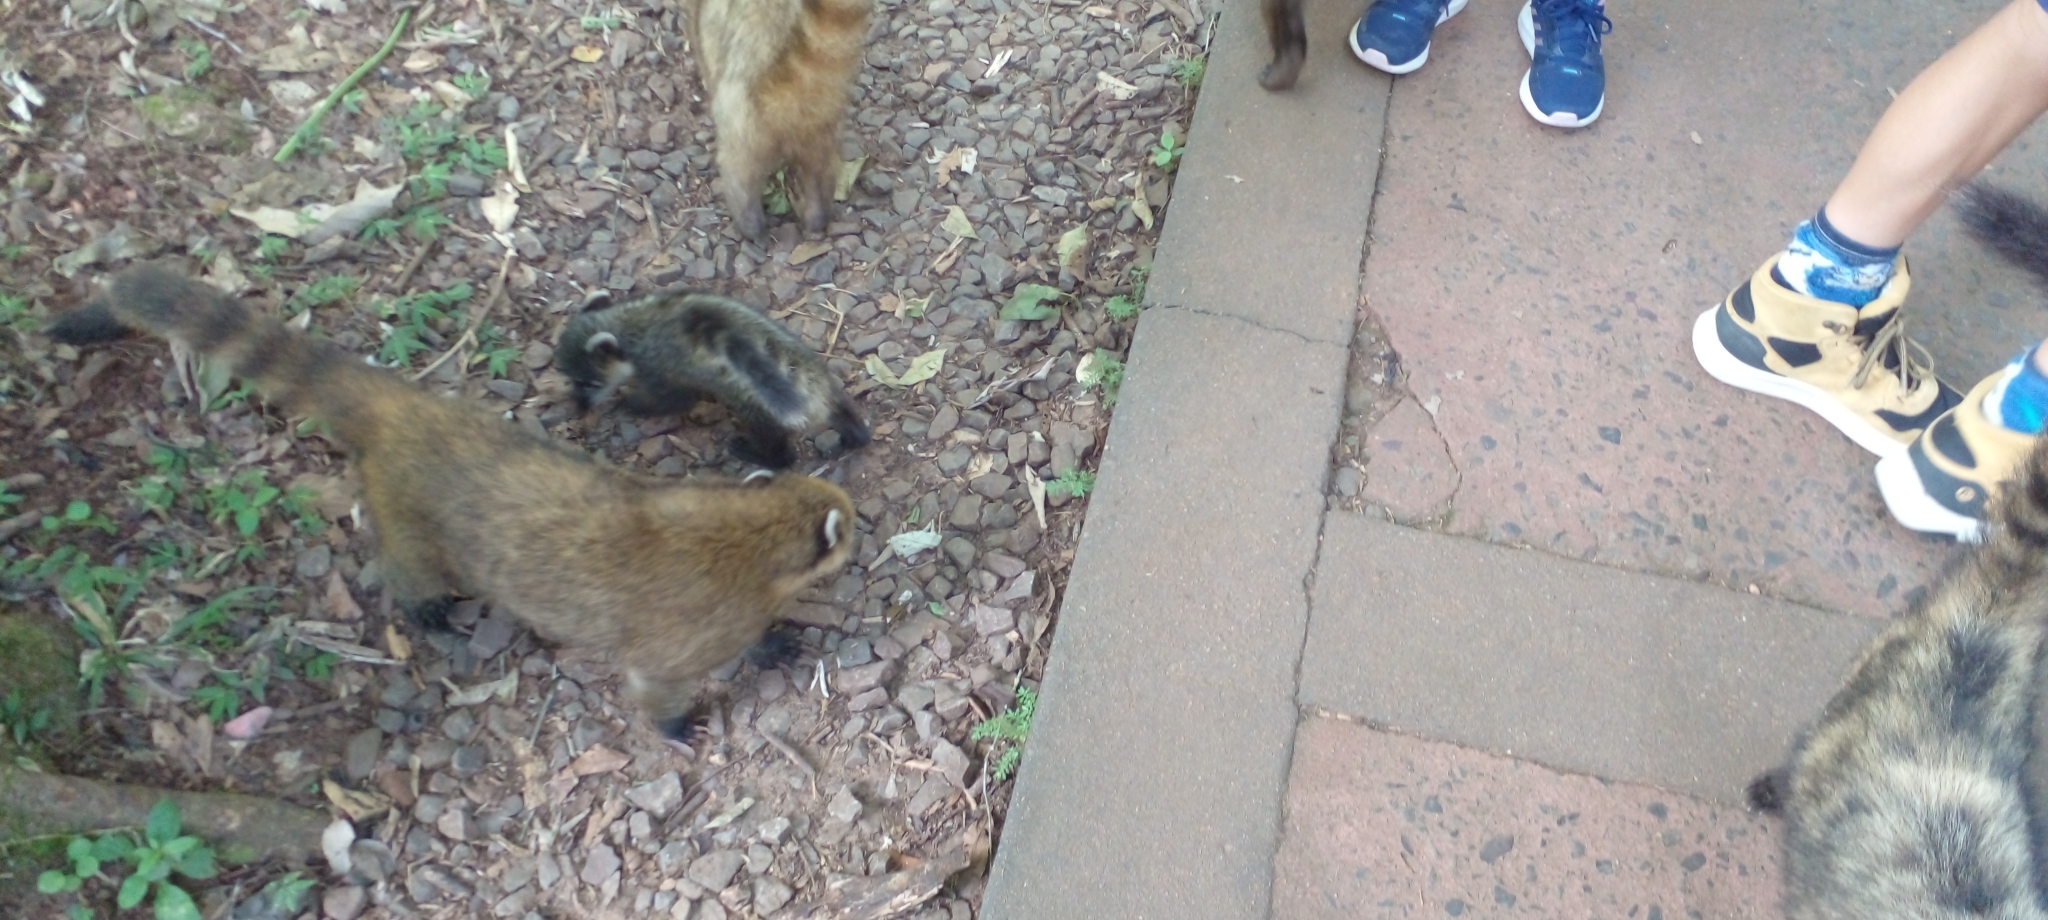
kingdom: Animalia
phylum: Chordata
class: Mammalia
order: Carnivora
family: Procyonidae
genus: Nasua
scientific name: Nasua nasua
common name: South american coati
